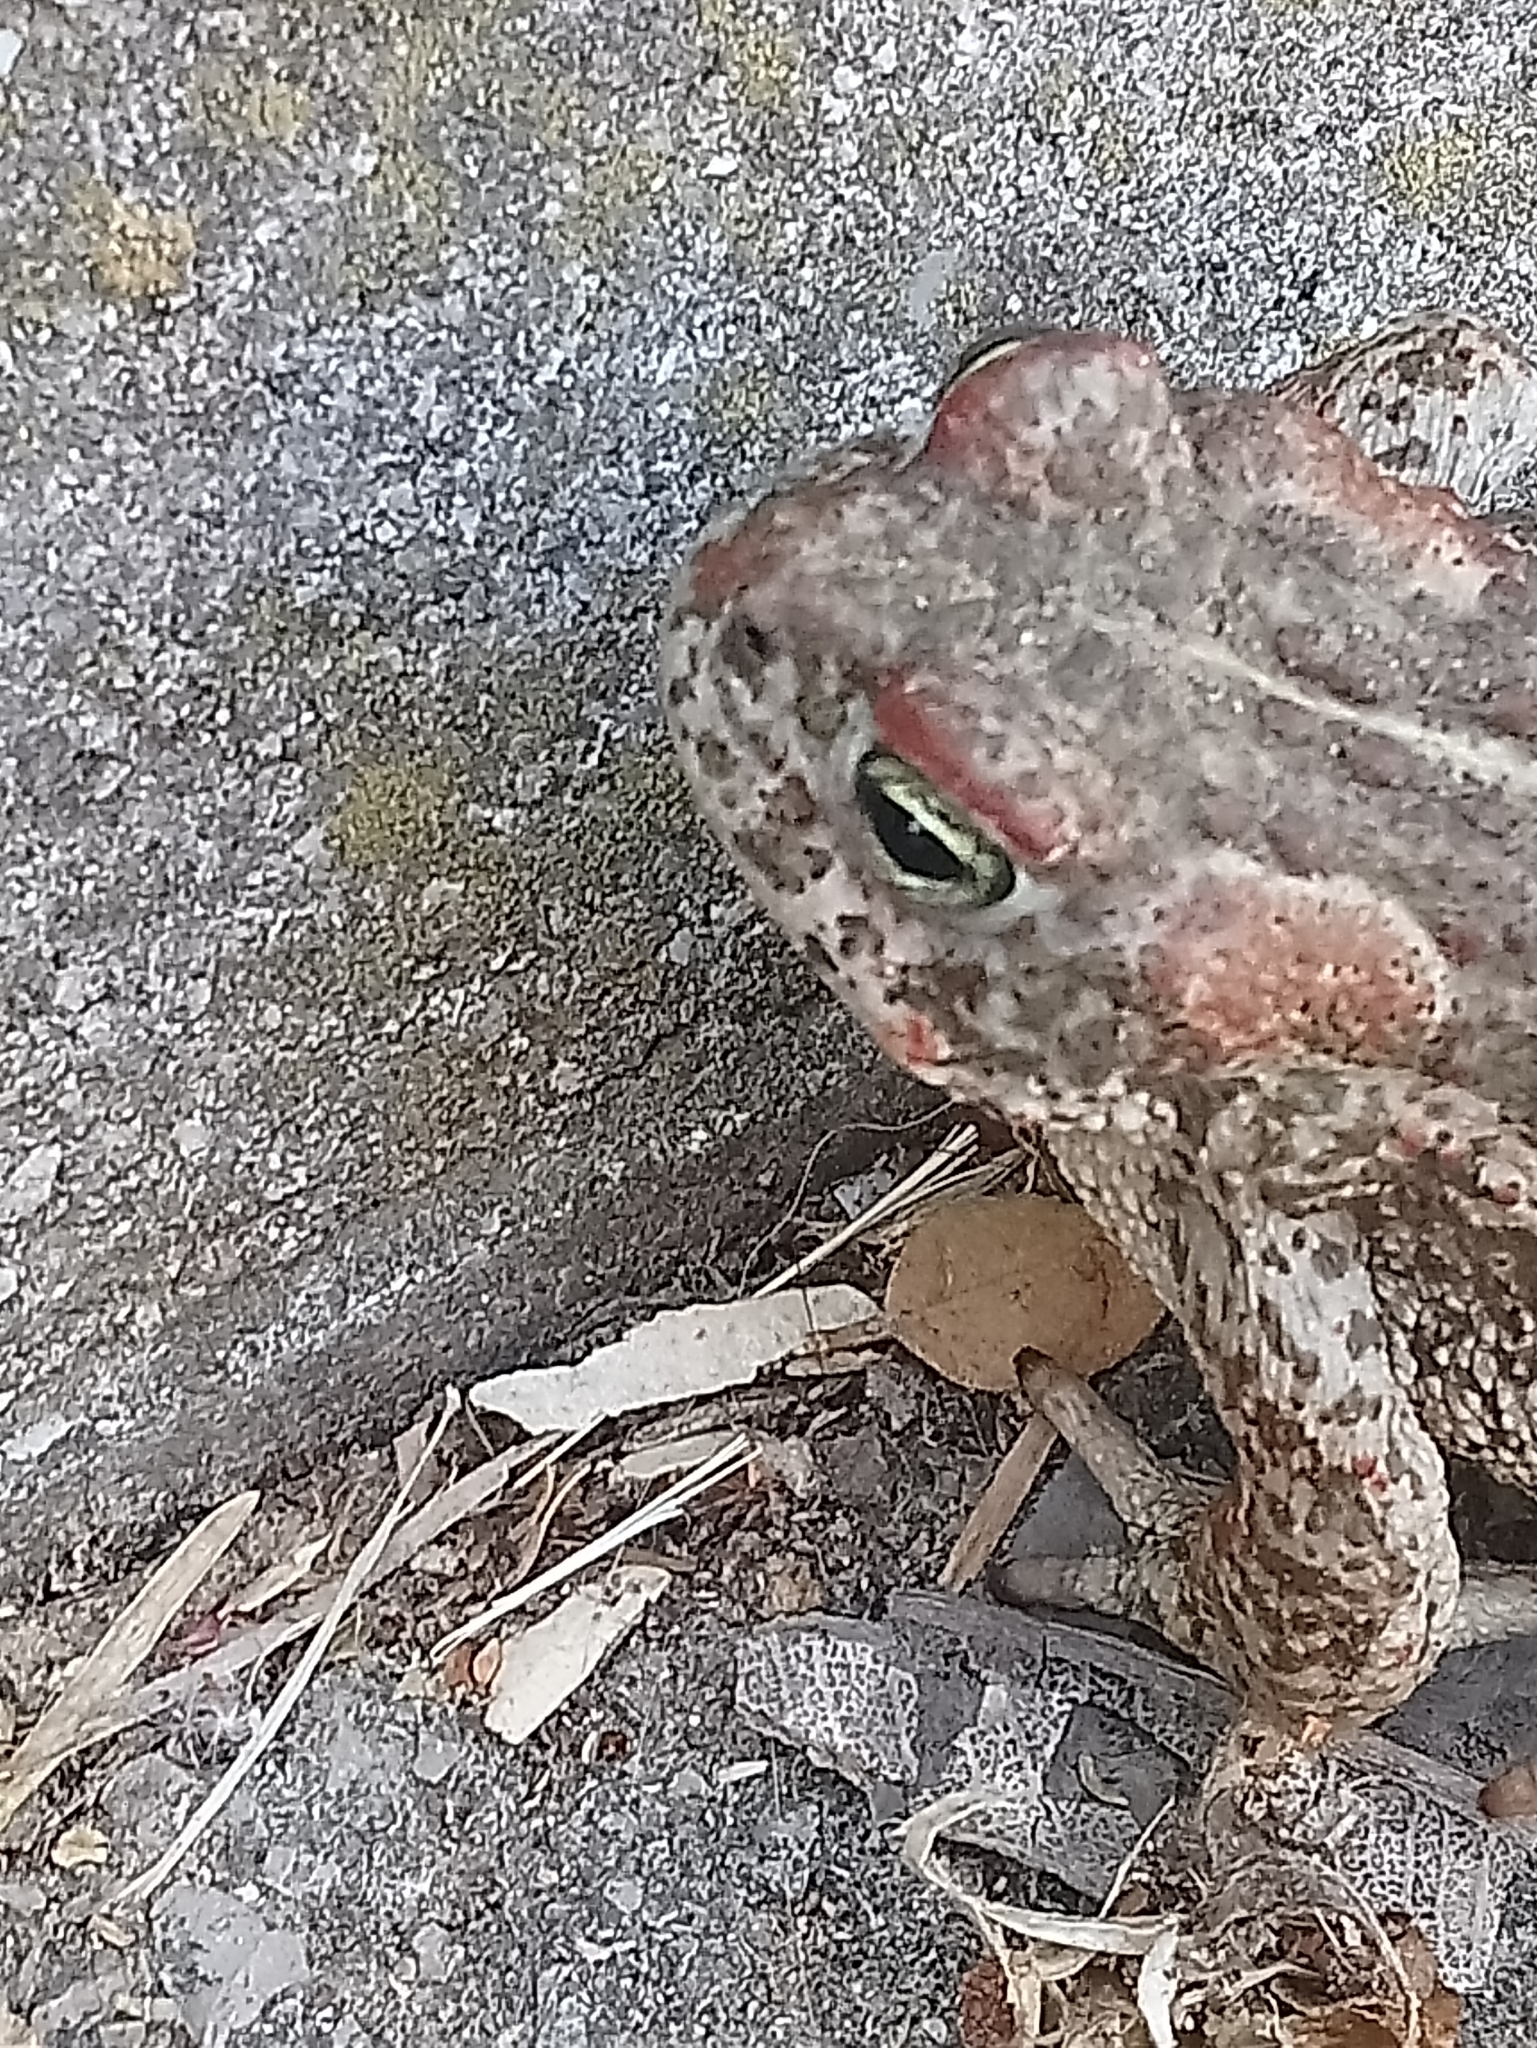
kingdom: Animalia
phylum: Chordata
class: Amphibia
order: Anura
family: Bufonidae
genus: Epidalea
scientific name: Epidalea calamita
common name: Natterjack toad
